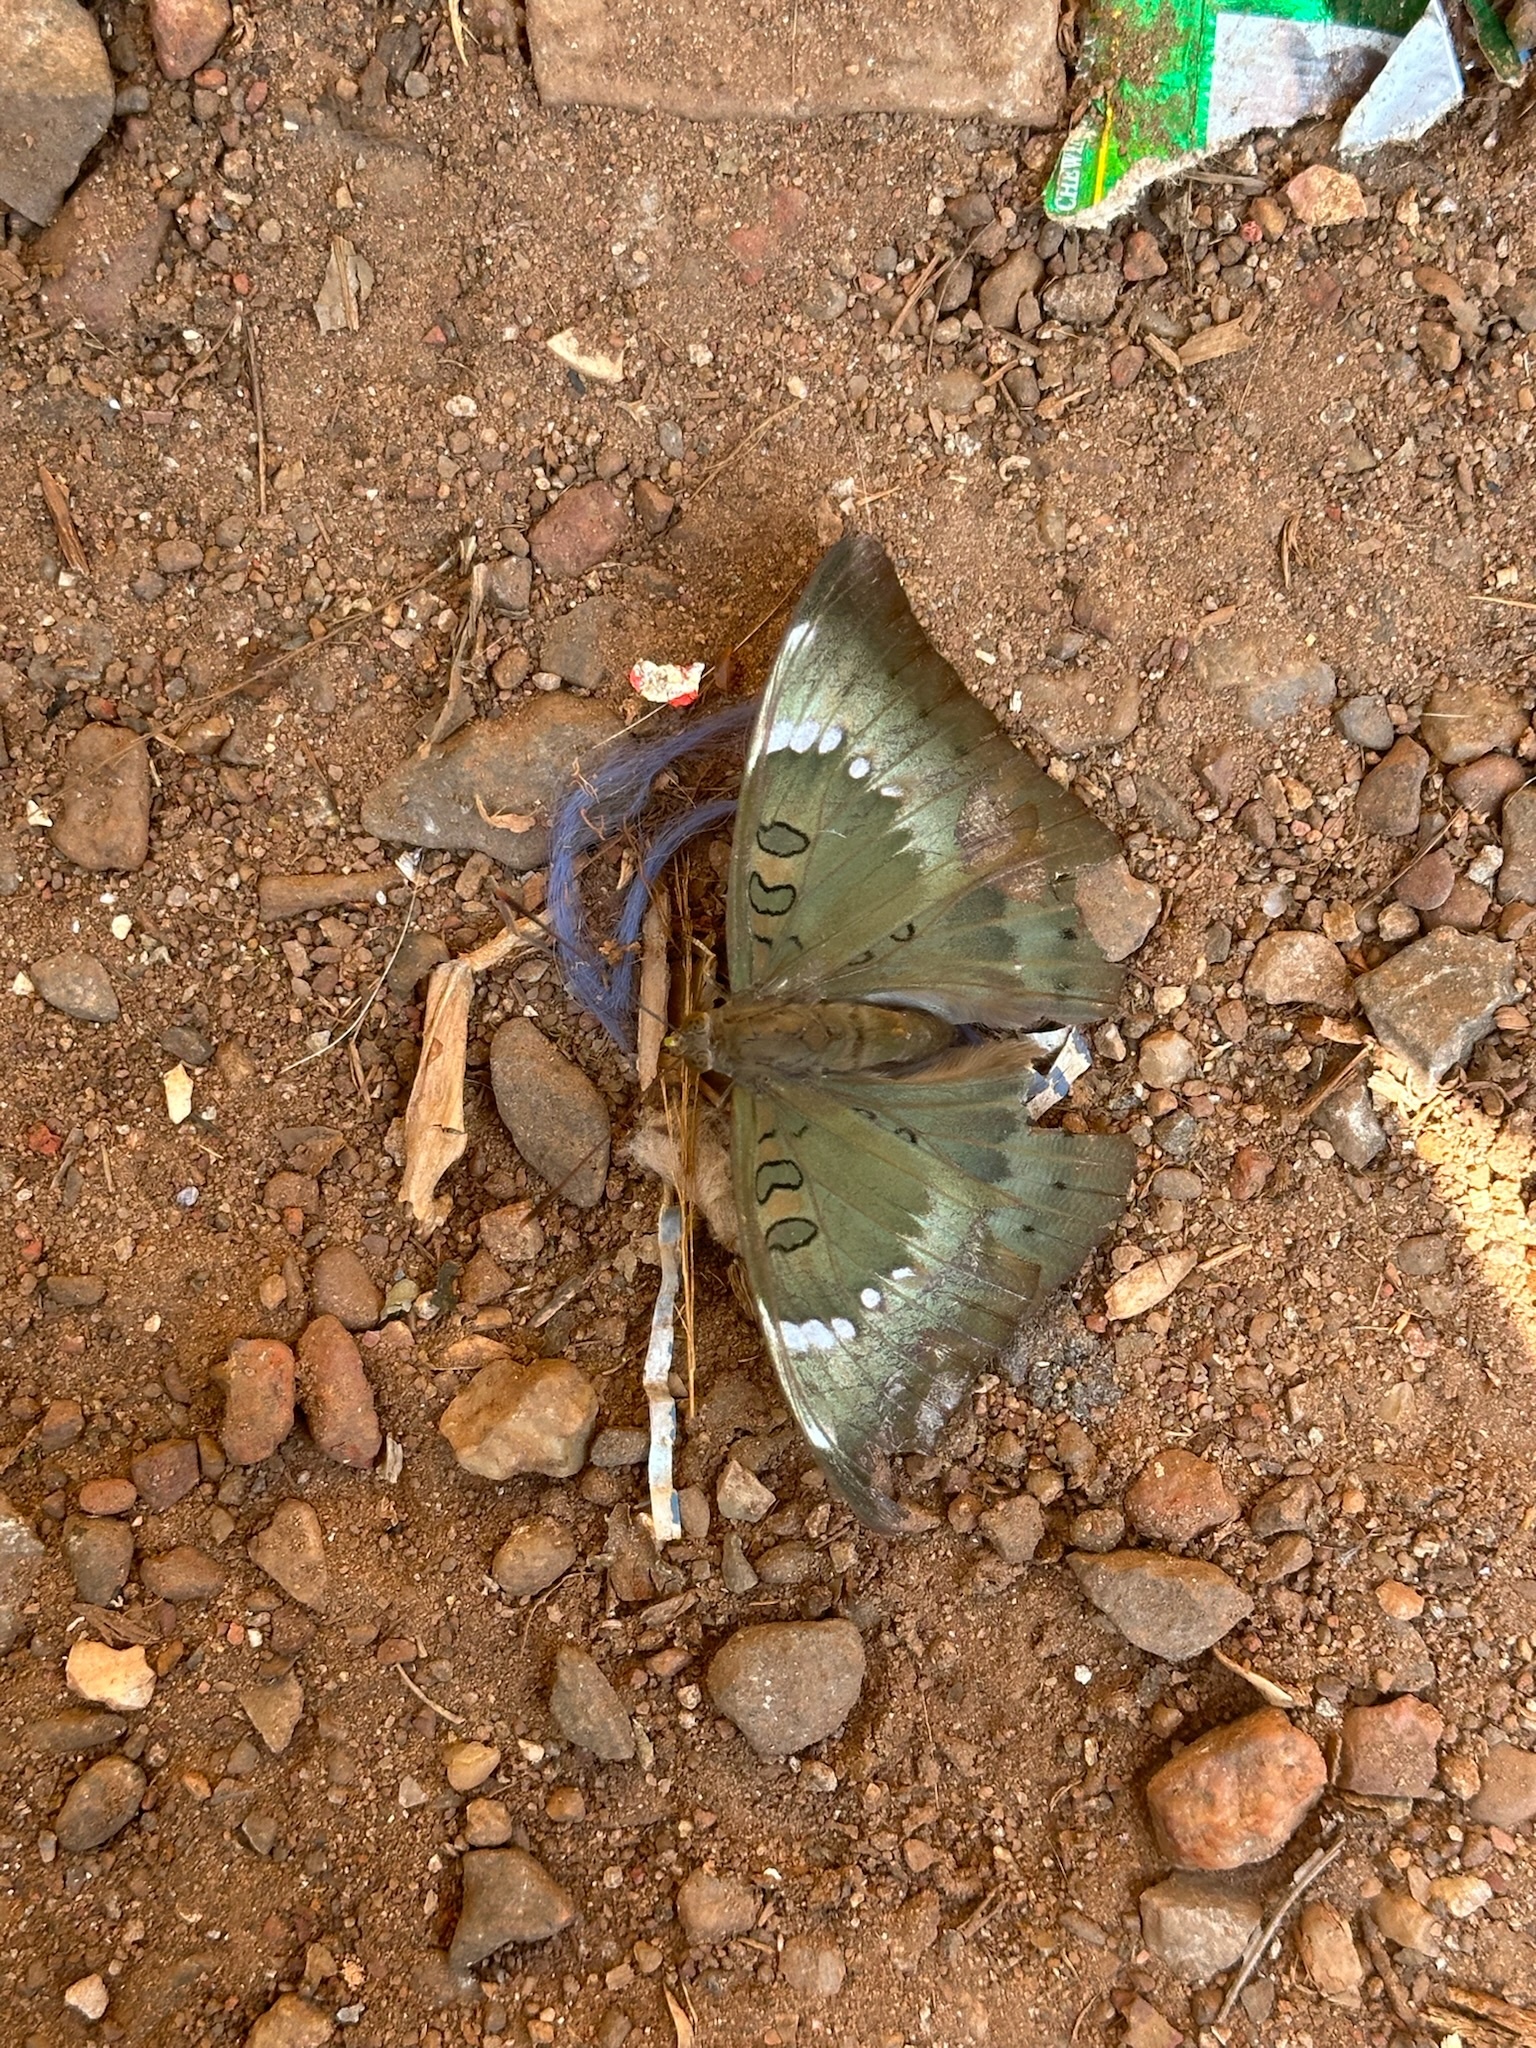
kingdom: Animalia
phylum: Arthropoda
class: Insecta
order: Lepidoptera
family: Nymphalidae
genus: Euthalia
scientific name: Euthalia aconthea
